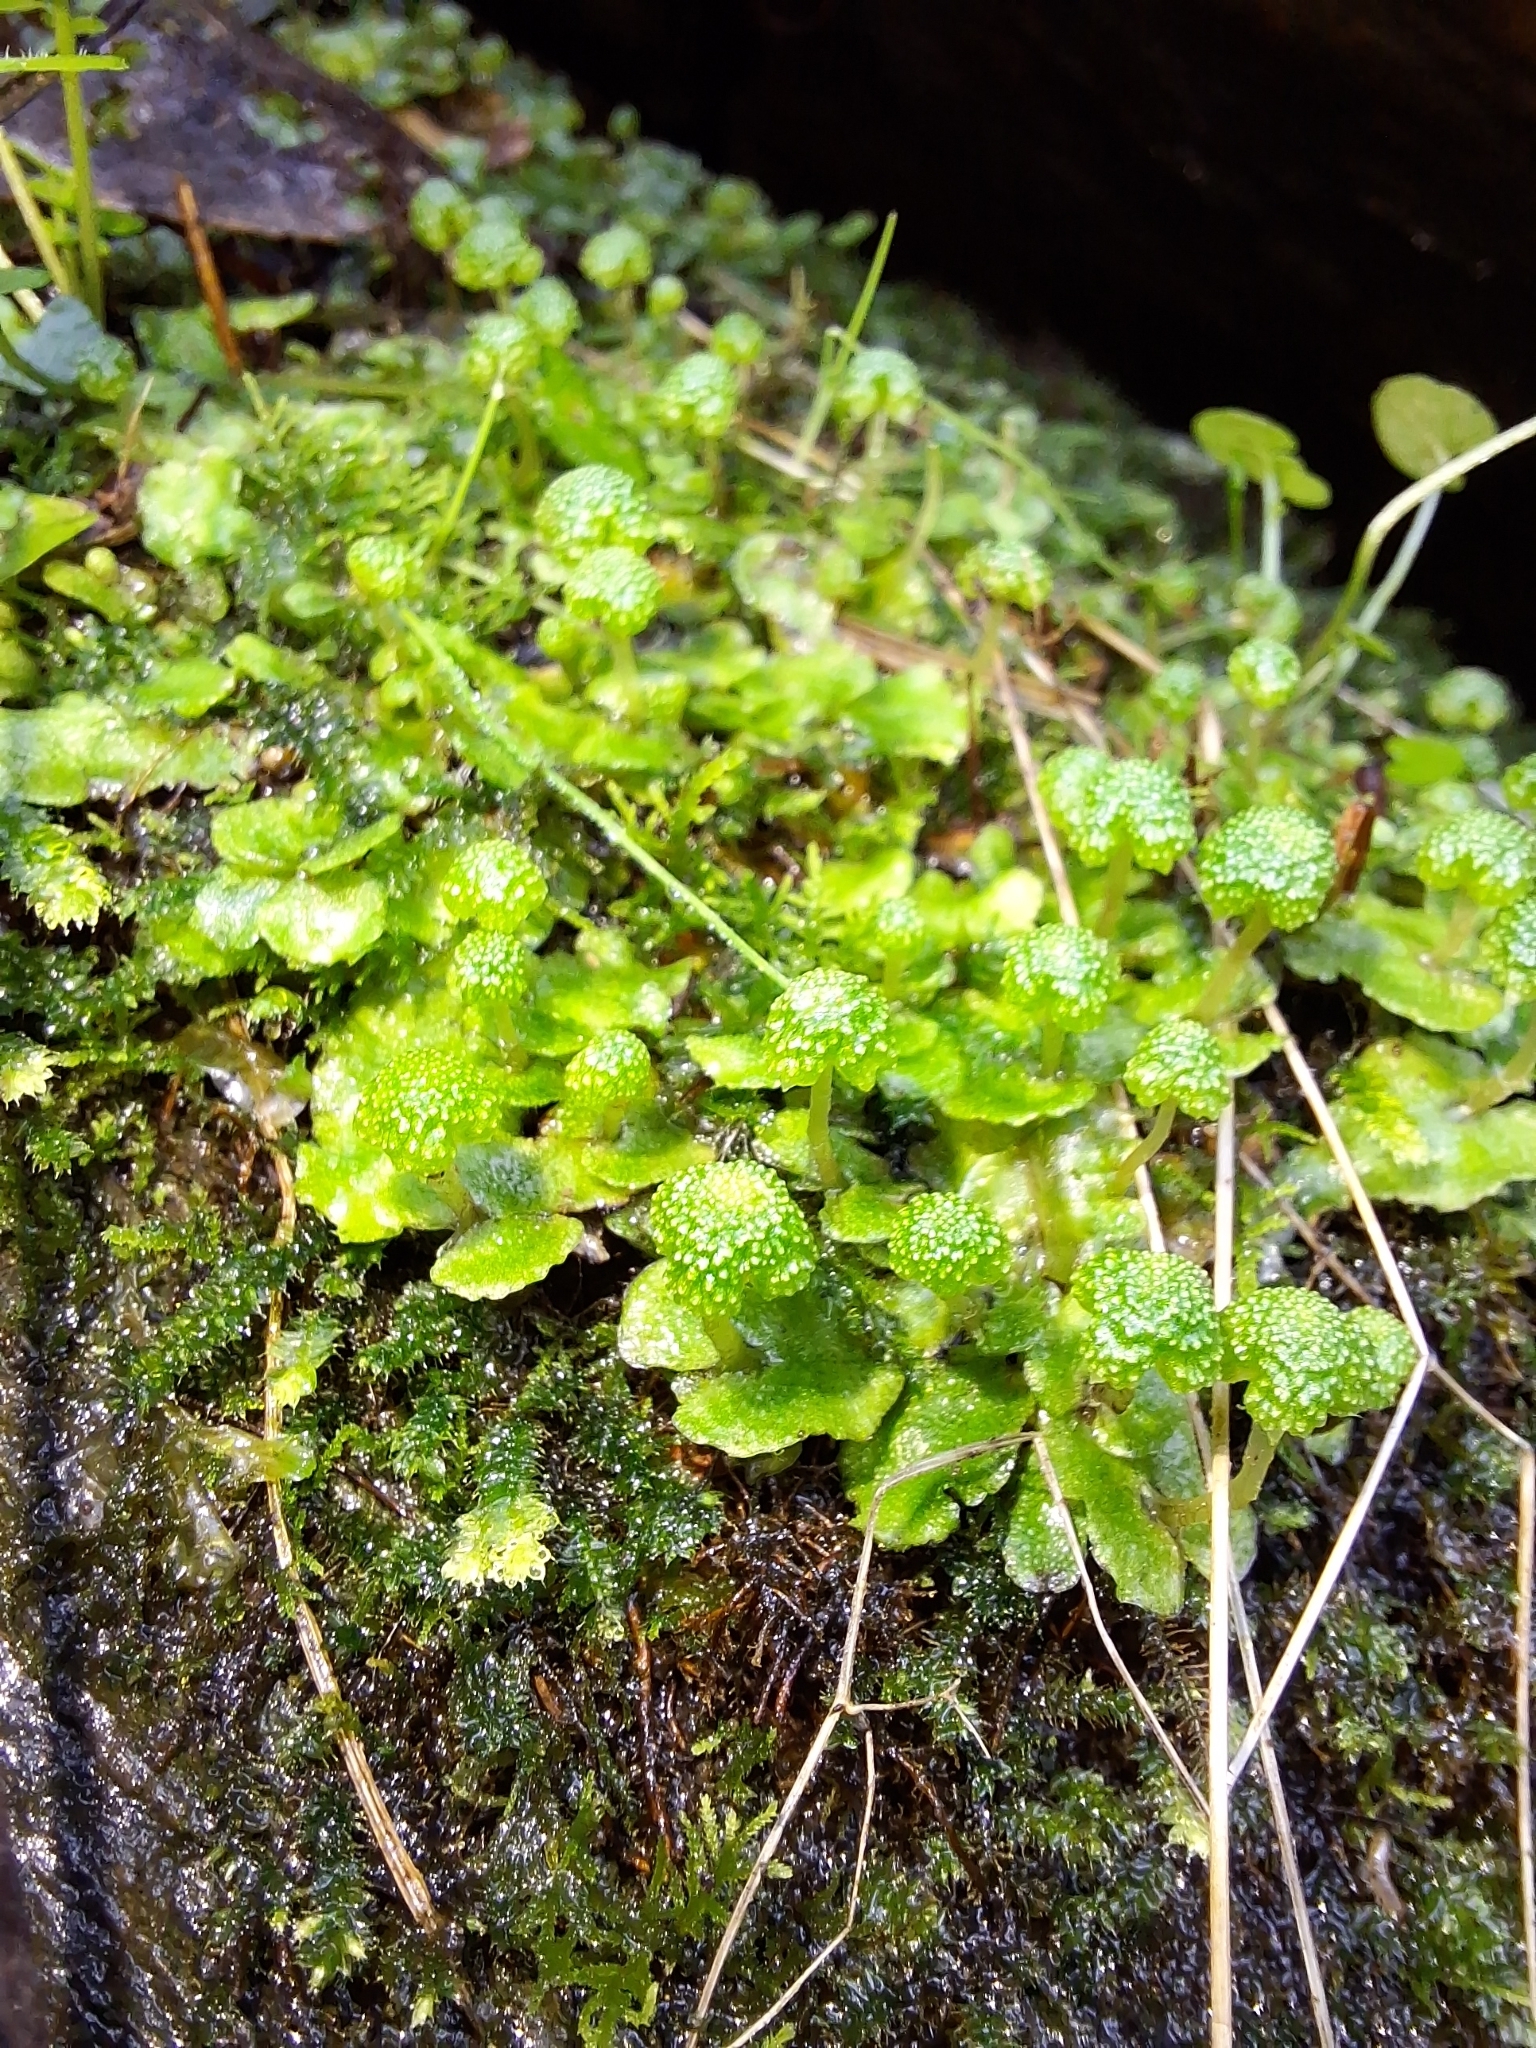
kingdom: Plantae
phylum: Marchantiophyta
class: Marchantiopsida
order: Marchantiales
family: Aytoniaceae
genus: Asterella
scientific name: Asterella drummondii
